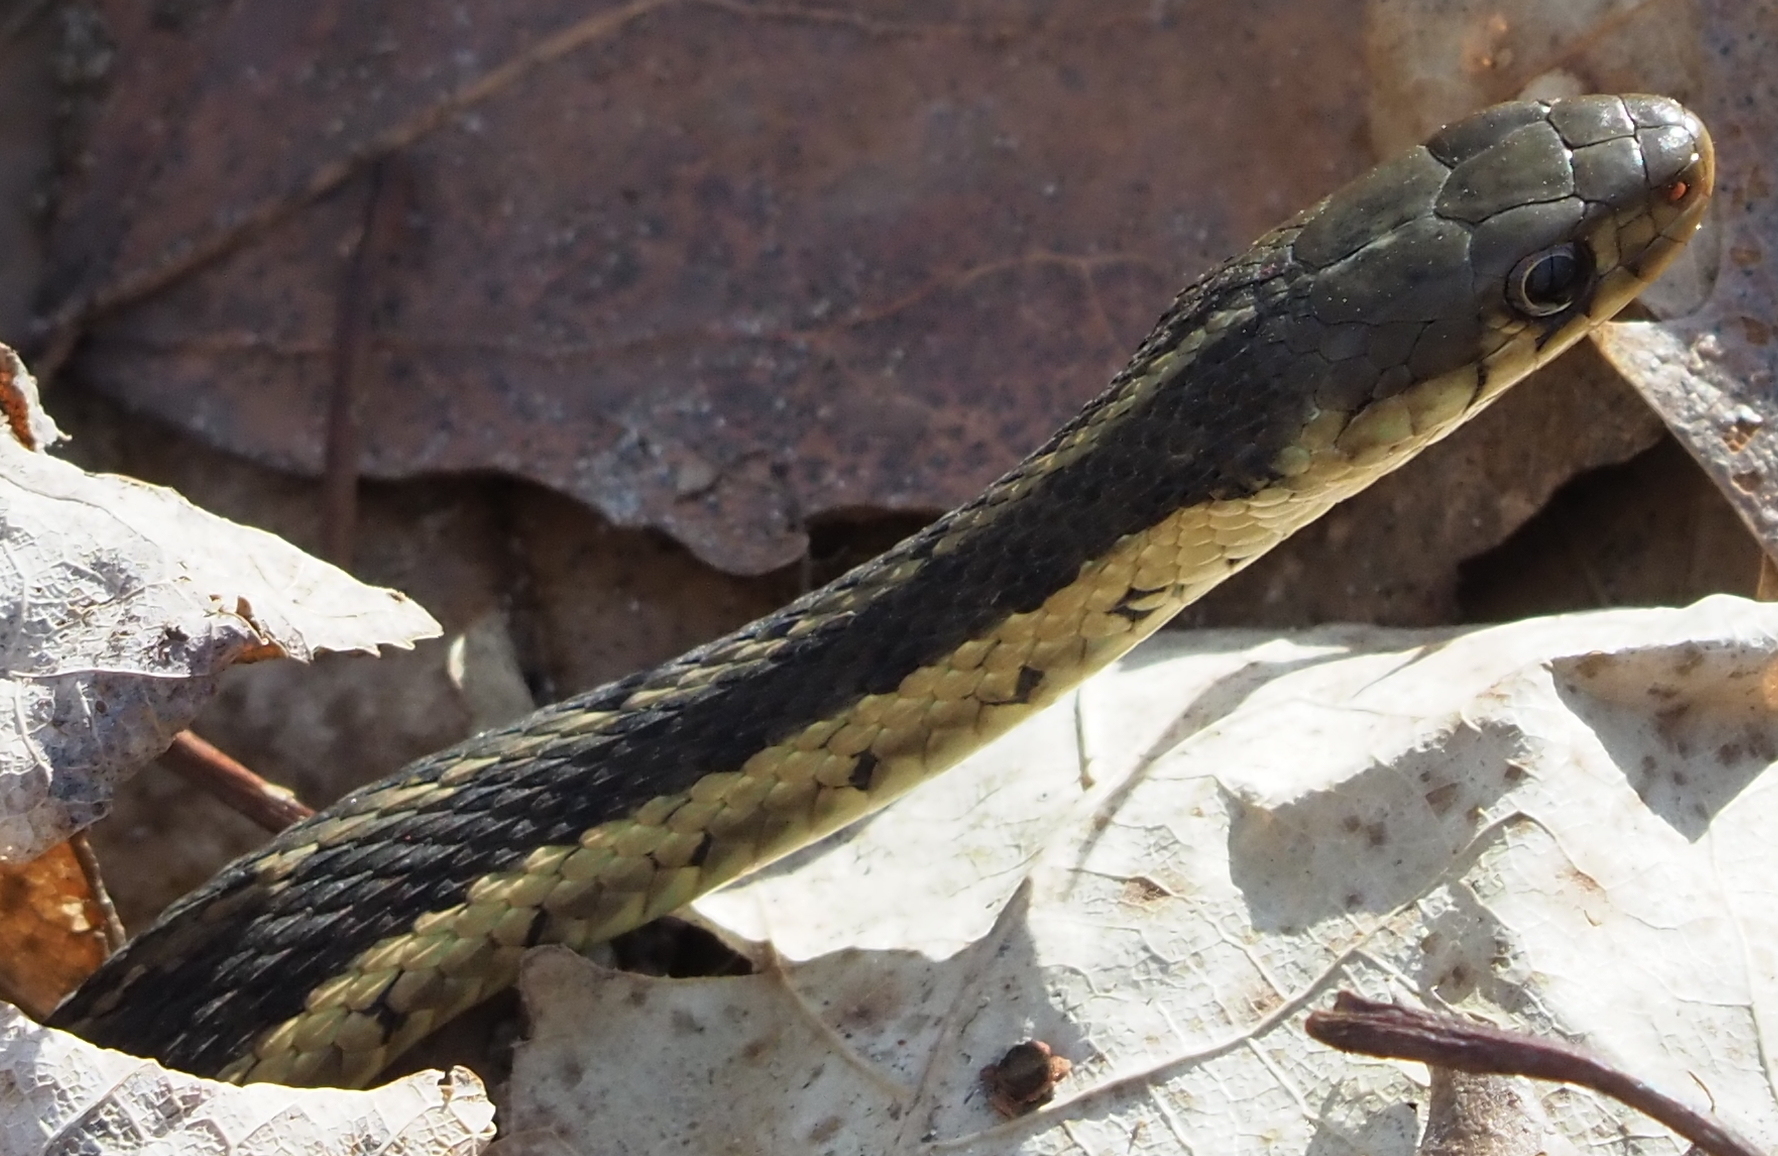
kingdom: Animalia
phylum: Chordata
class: Squamata
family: Colubridae
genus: Thamnophis
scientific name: Thamnophis sirtalis
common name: Common garter snake
